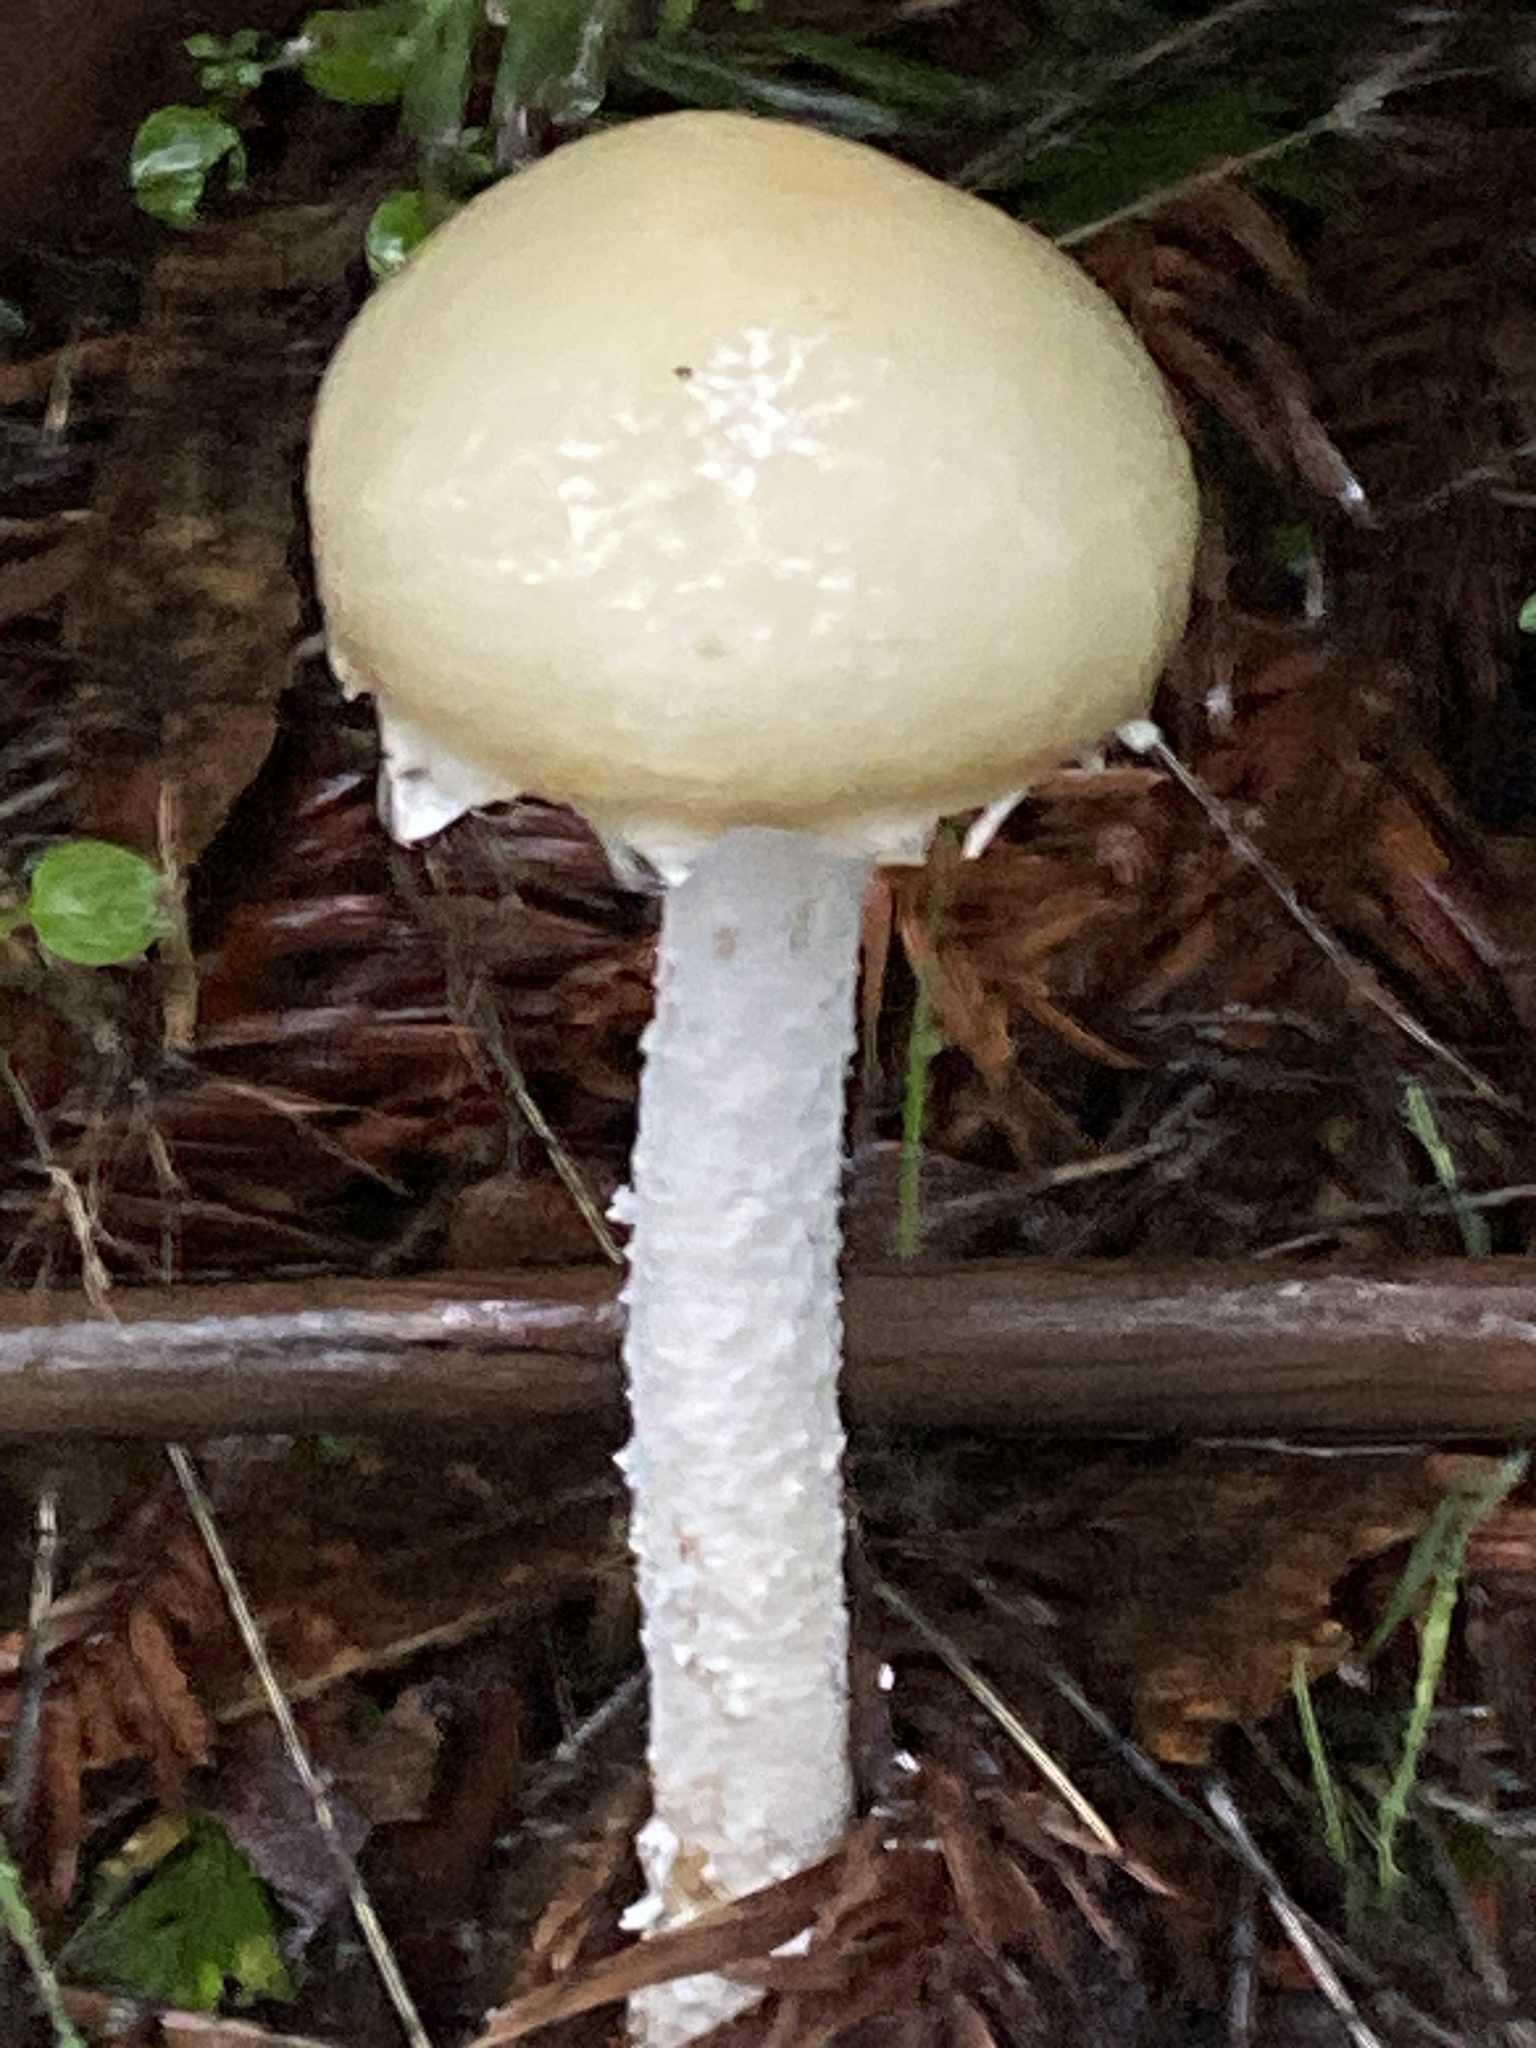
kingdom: Fungi
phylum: Basidiomycota
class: Agaricomycetes
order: Agaricales
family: Strophariaceae
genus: Stropharia
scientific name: Stropharia ambigua
